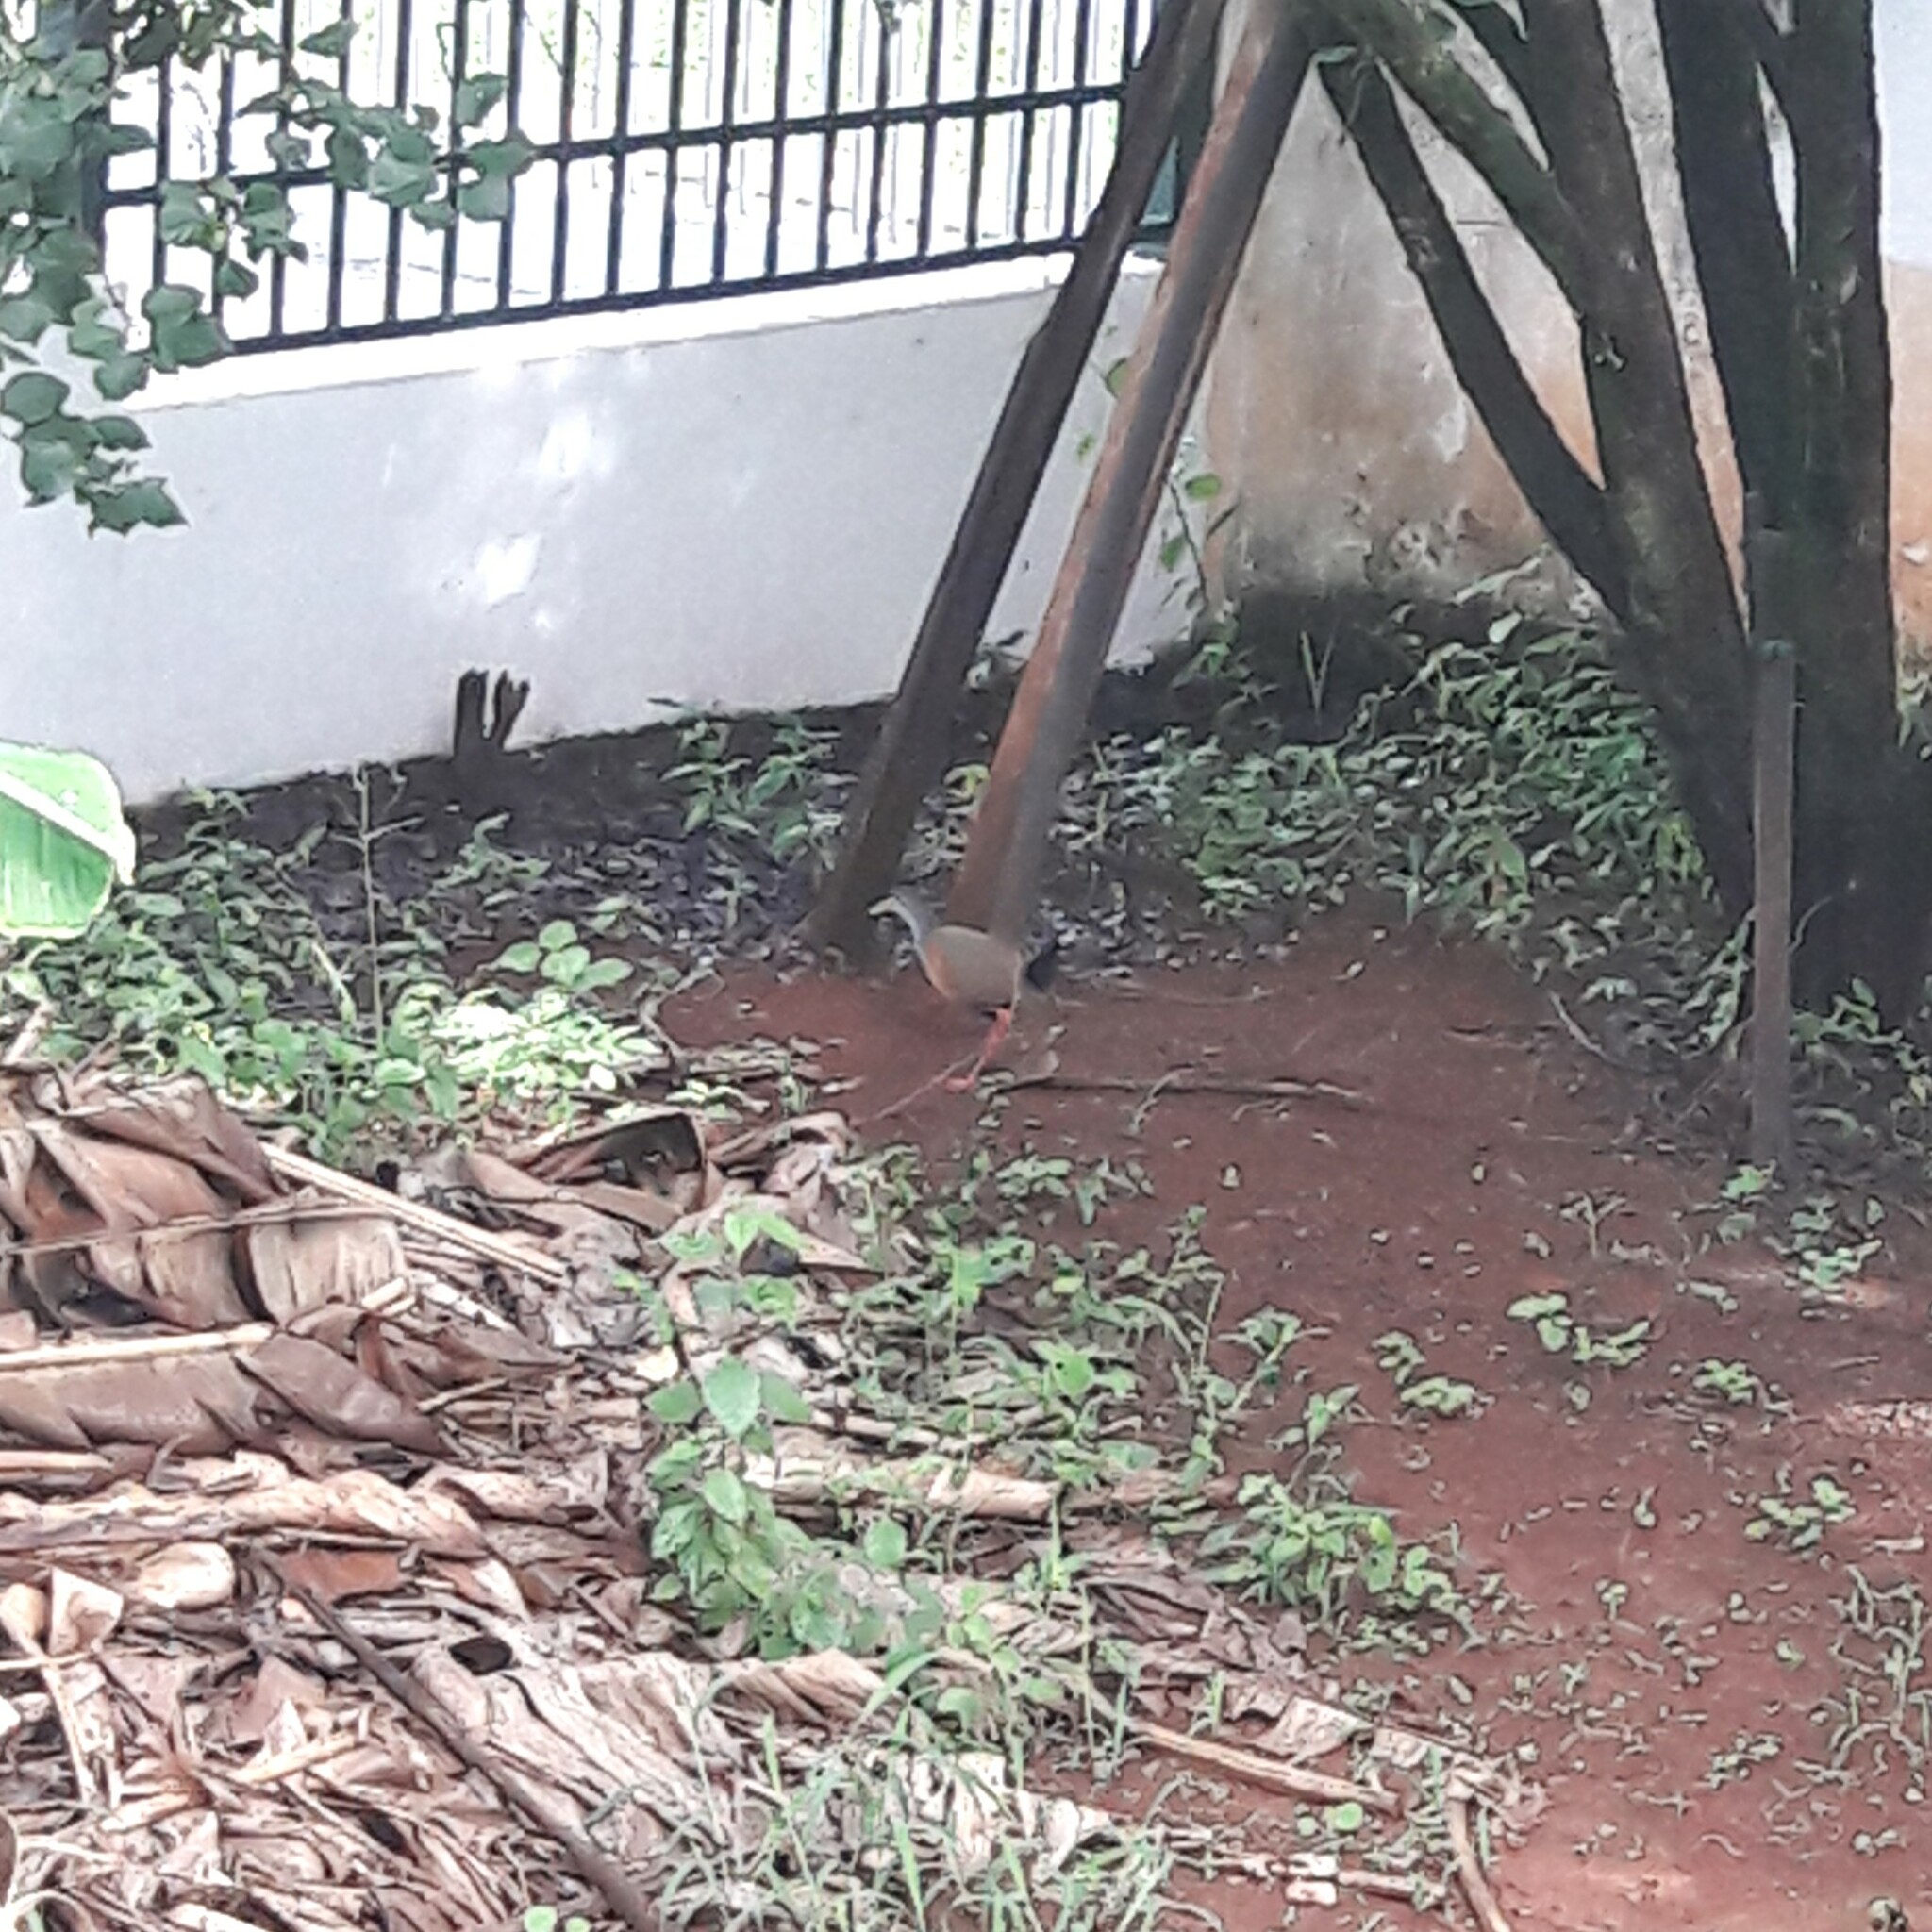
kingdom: Animalia
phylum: Chordata
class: Aves
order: Gruiformes
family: Rallidae
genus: Aramides
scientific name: Aramides cajanea
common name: Gray-necked wood-rail
